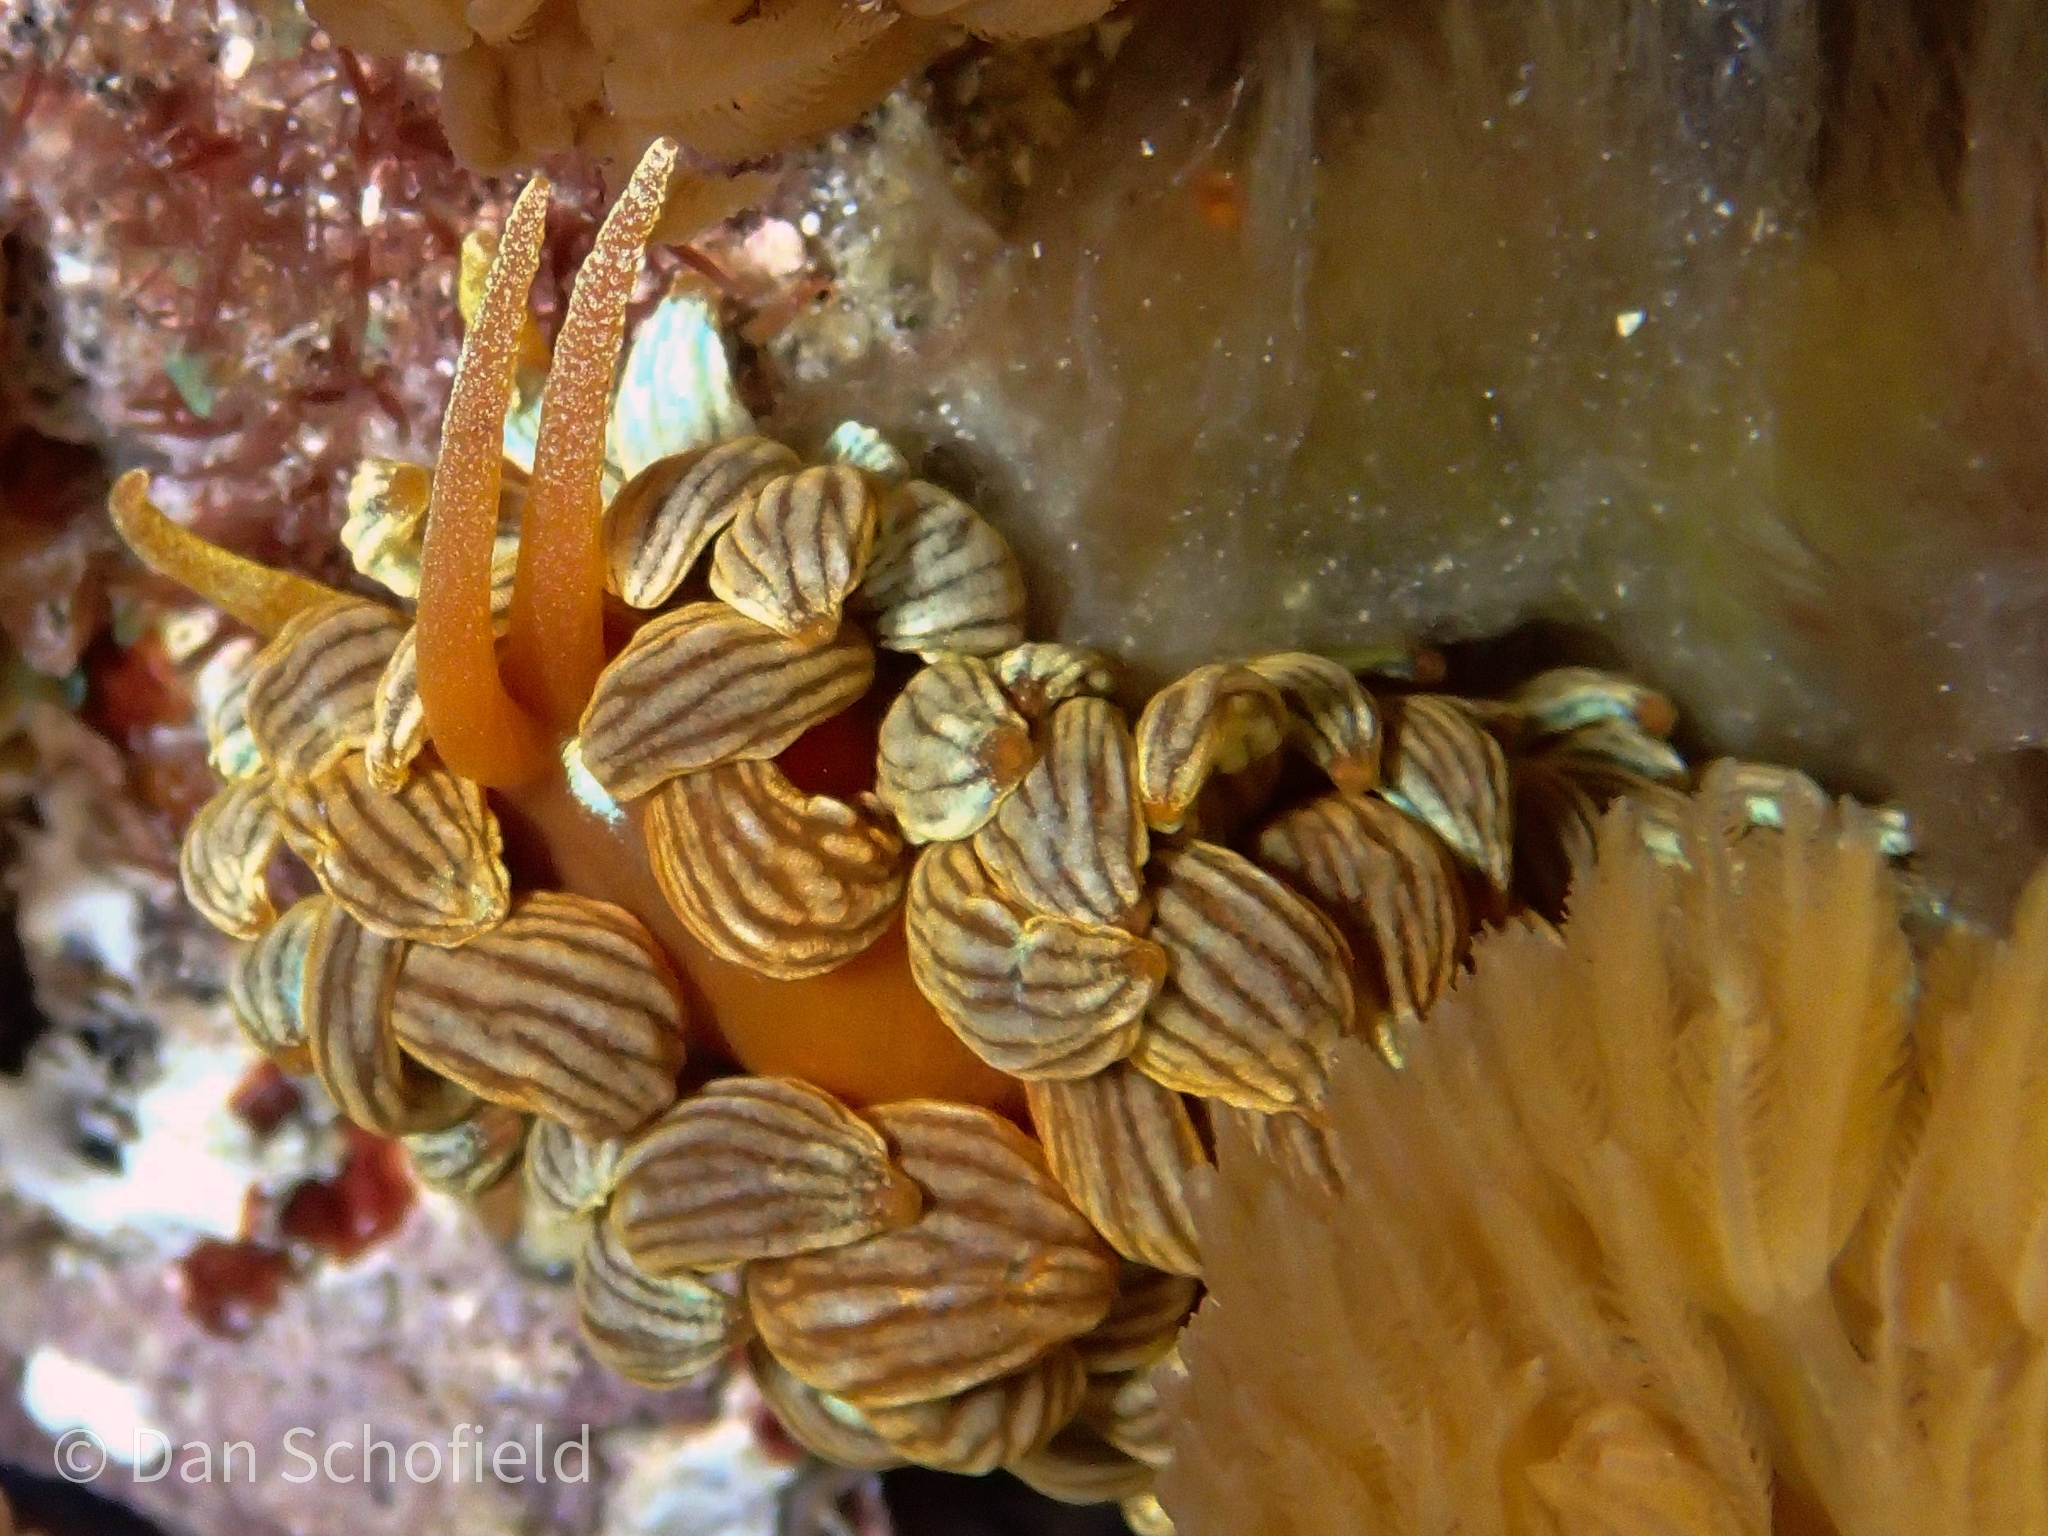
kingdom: Animalia
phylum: Mollusca
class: Gastropoda
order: Nudibranchia
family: Myrrhinidae
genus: Phyllodesmium
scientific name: Phyllodesmium kabiranum
